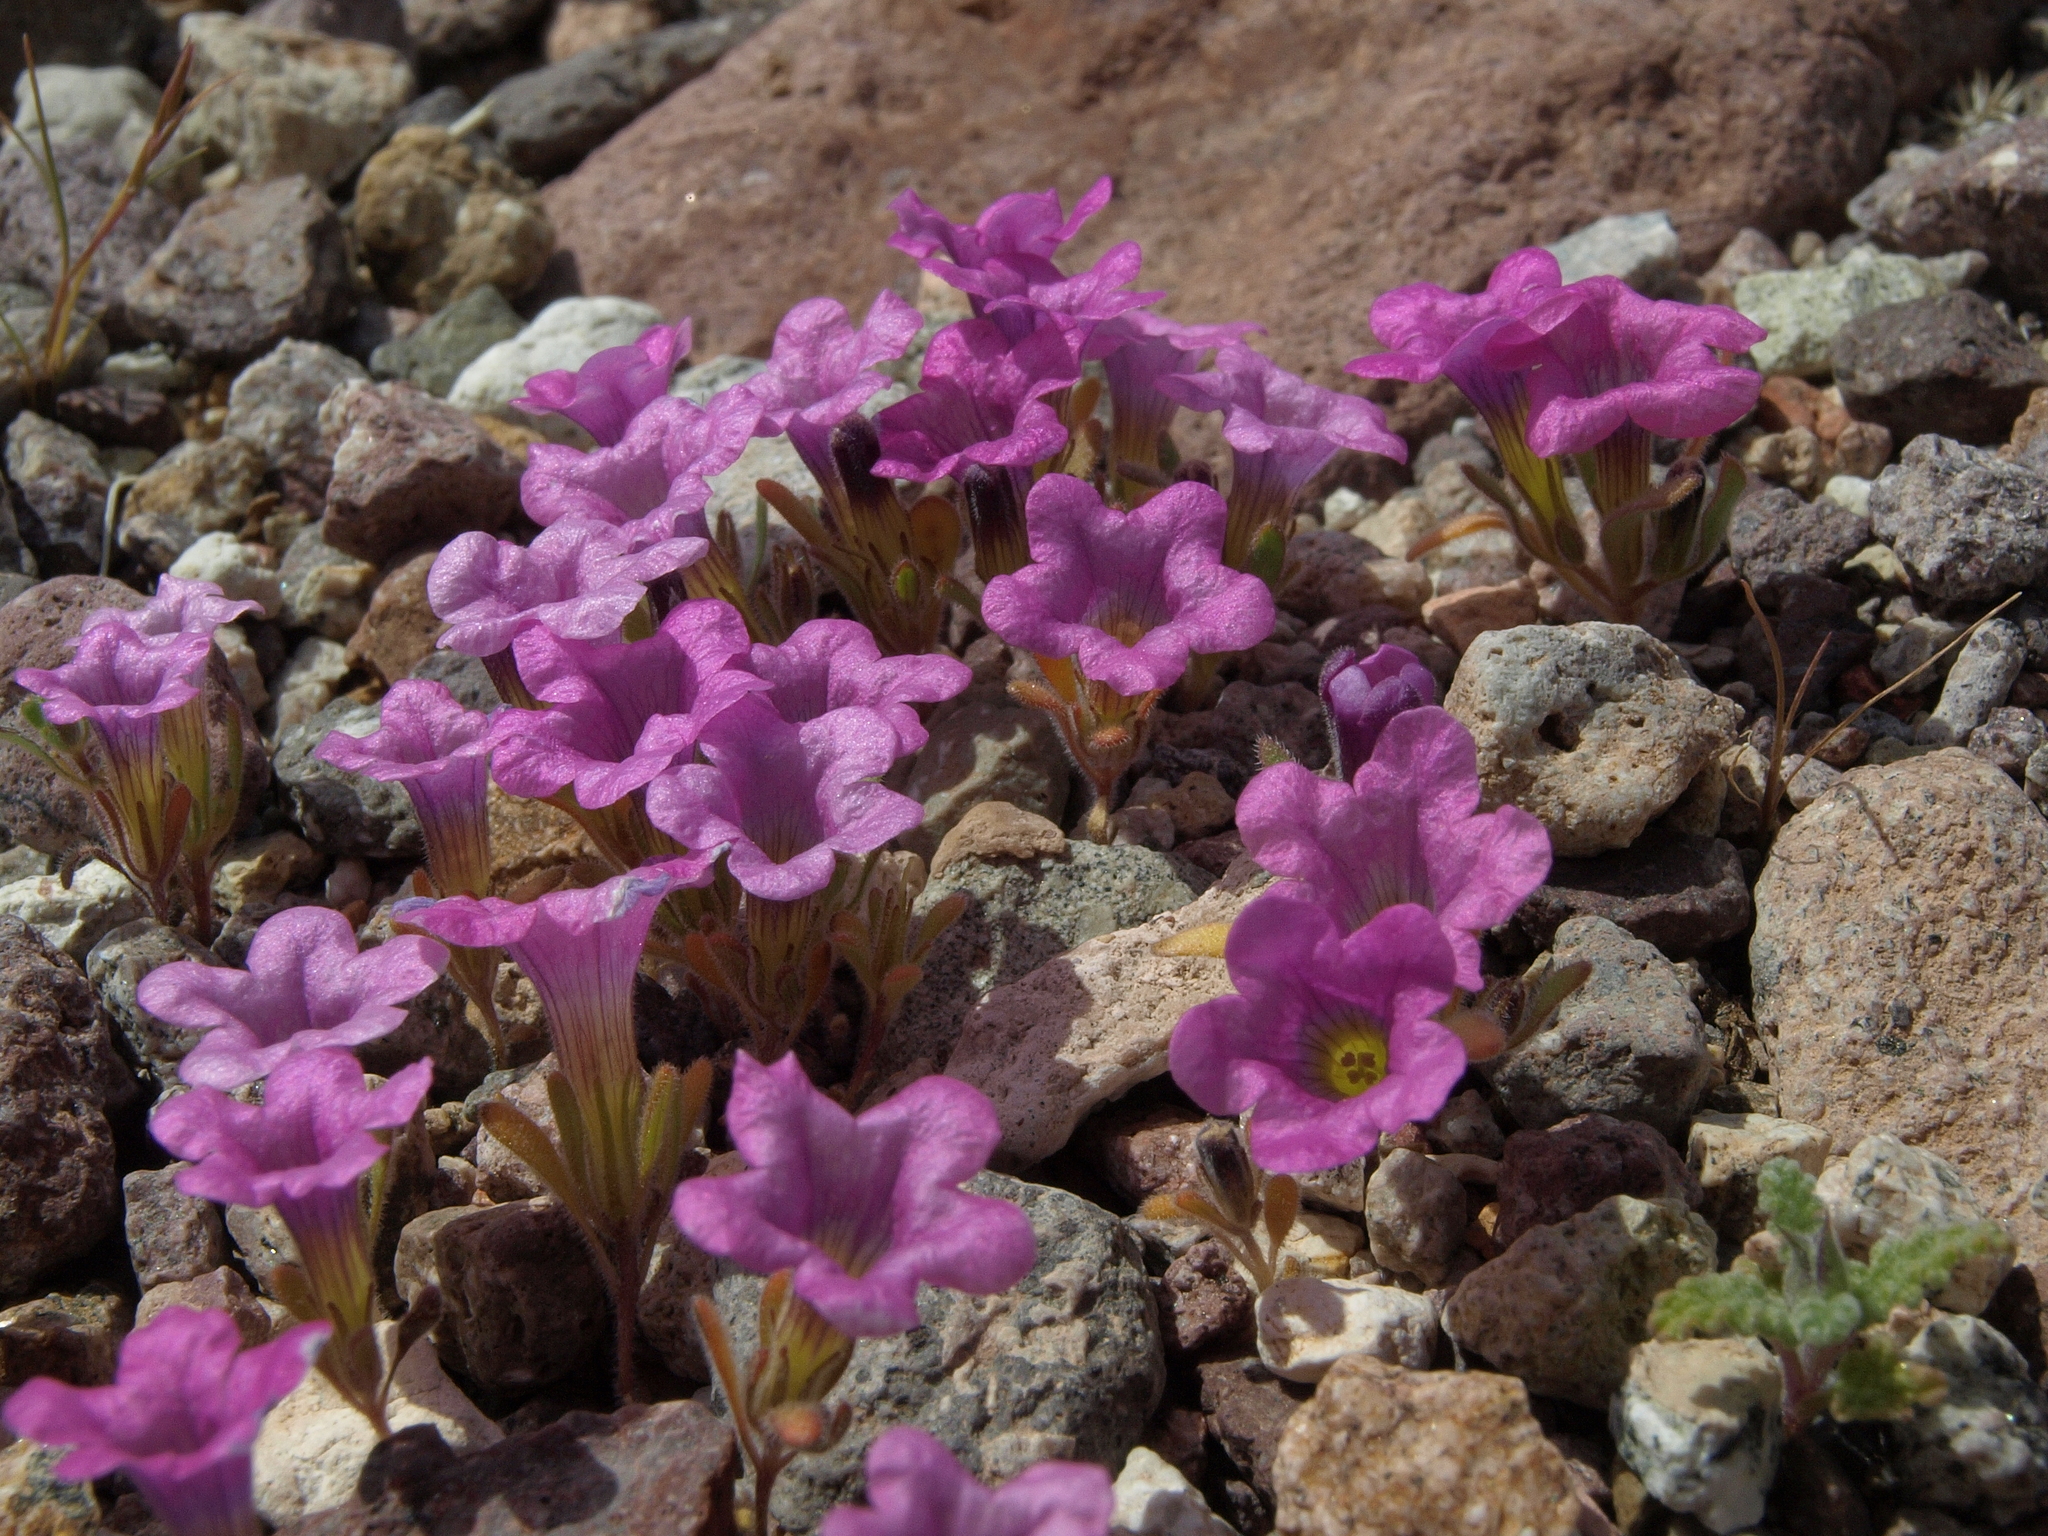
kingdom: Plantae
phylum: Tracheophyta
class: Magnoliopsida
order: Boraginales
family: Namaceae
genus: Nama
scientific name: Nama demissa
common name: Leafy nama
